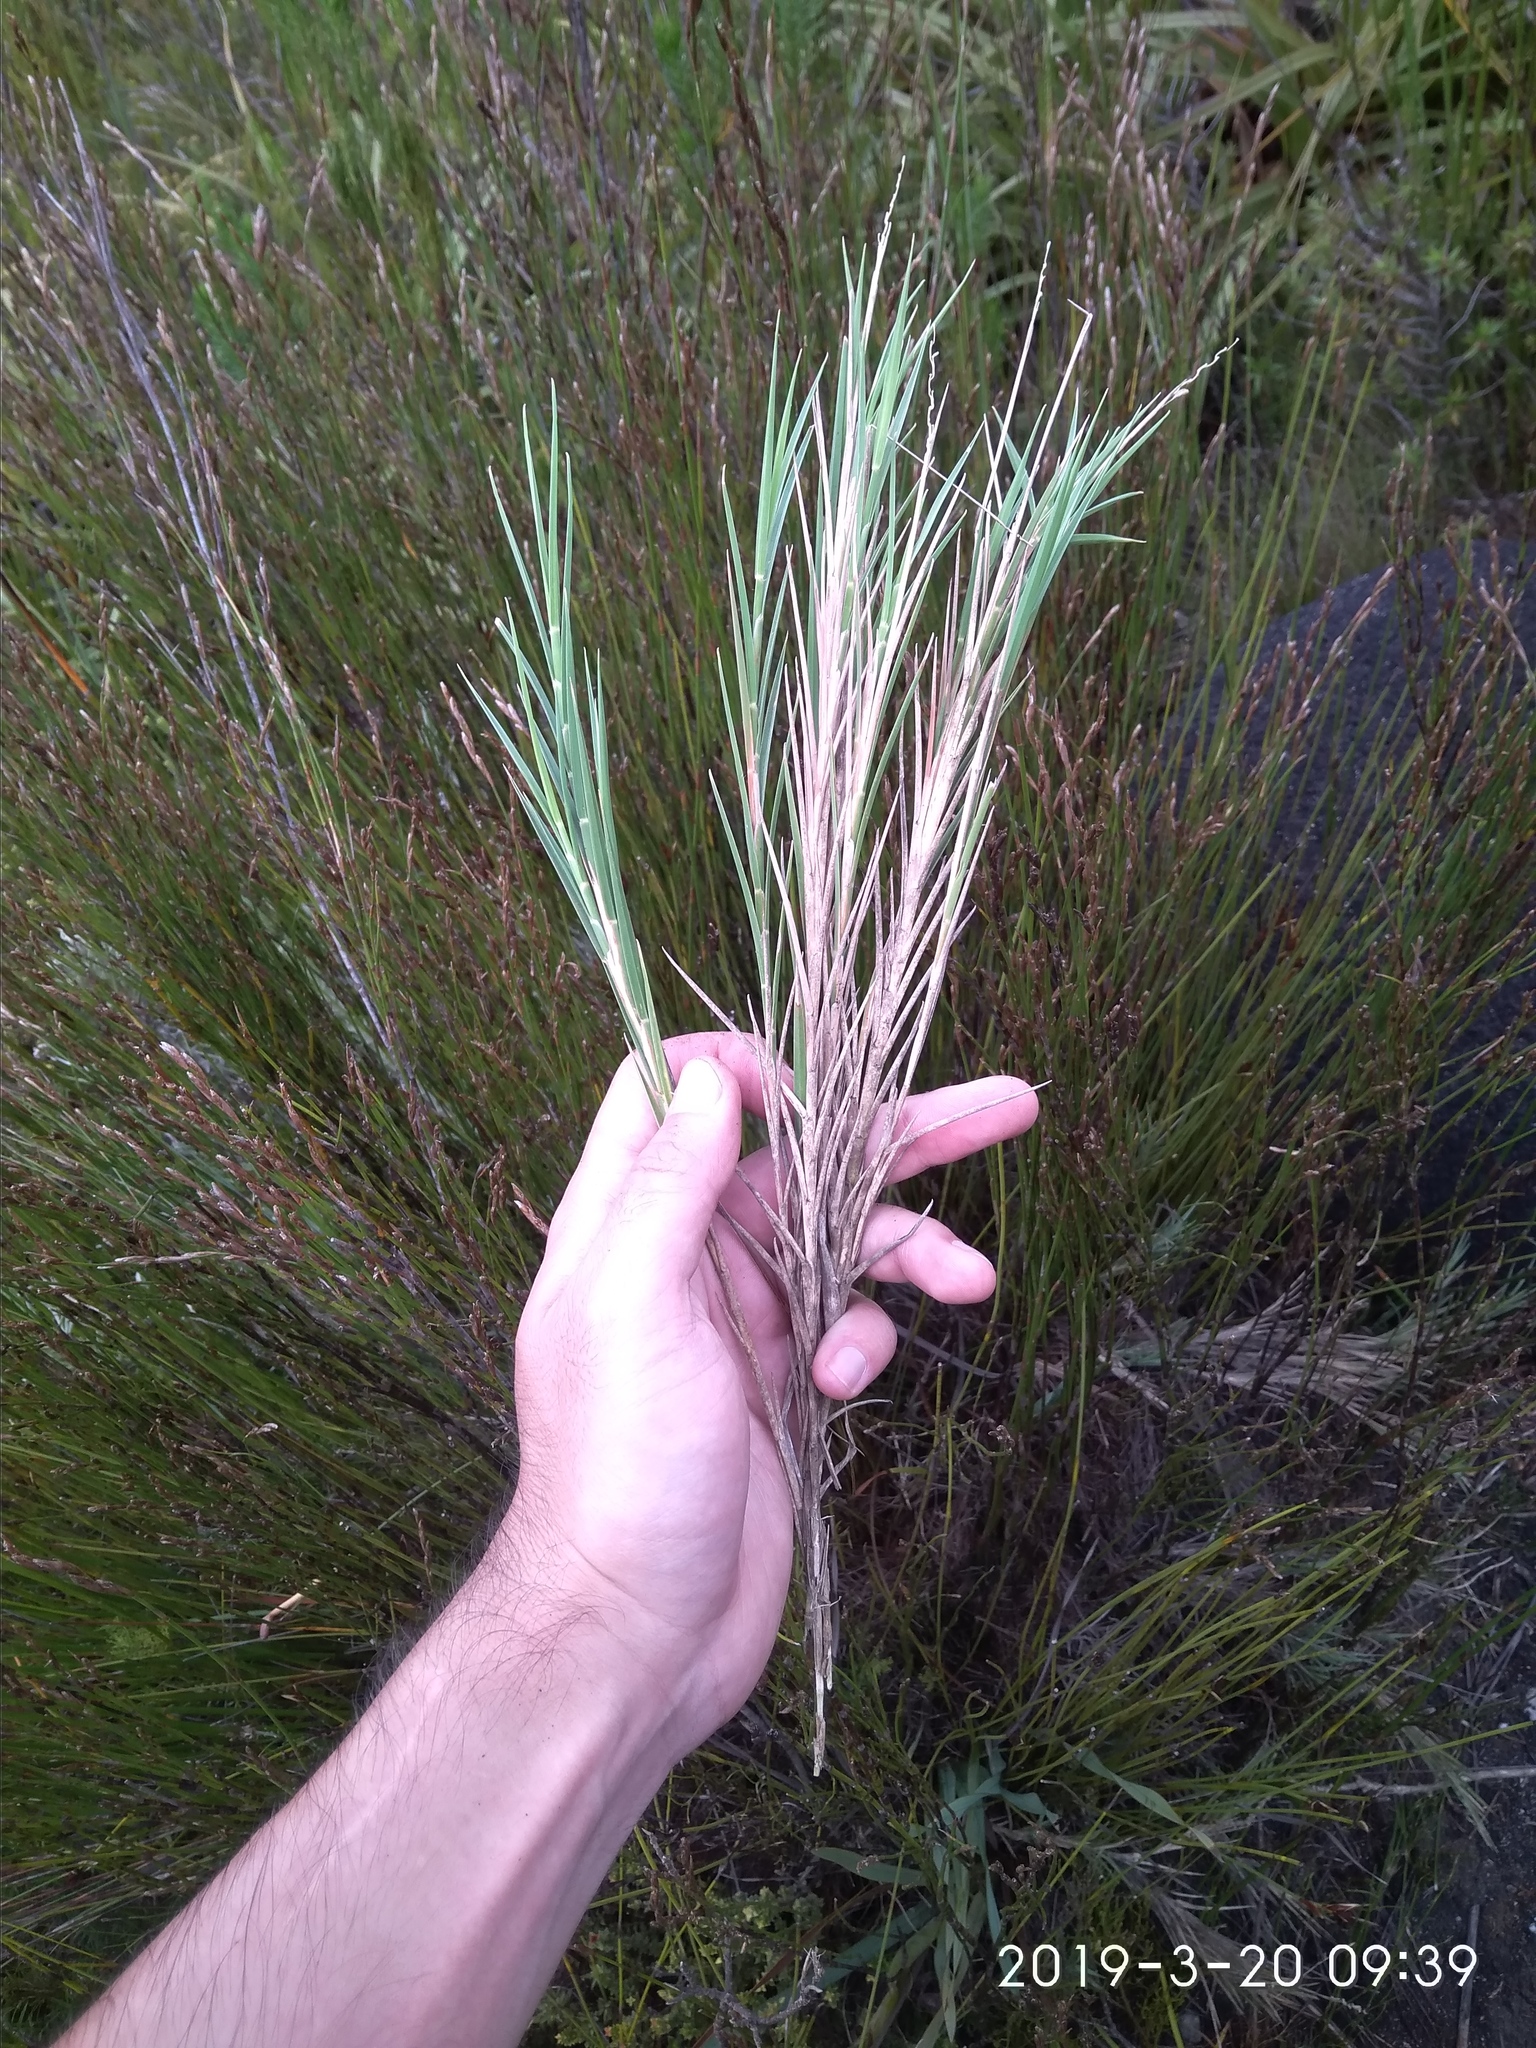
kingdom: Plantae
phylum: Tracheophyta
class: Liliopsida
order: Poales
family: Poaceae
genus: Ehrharta
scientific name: Ehrharta rupestris
